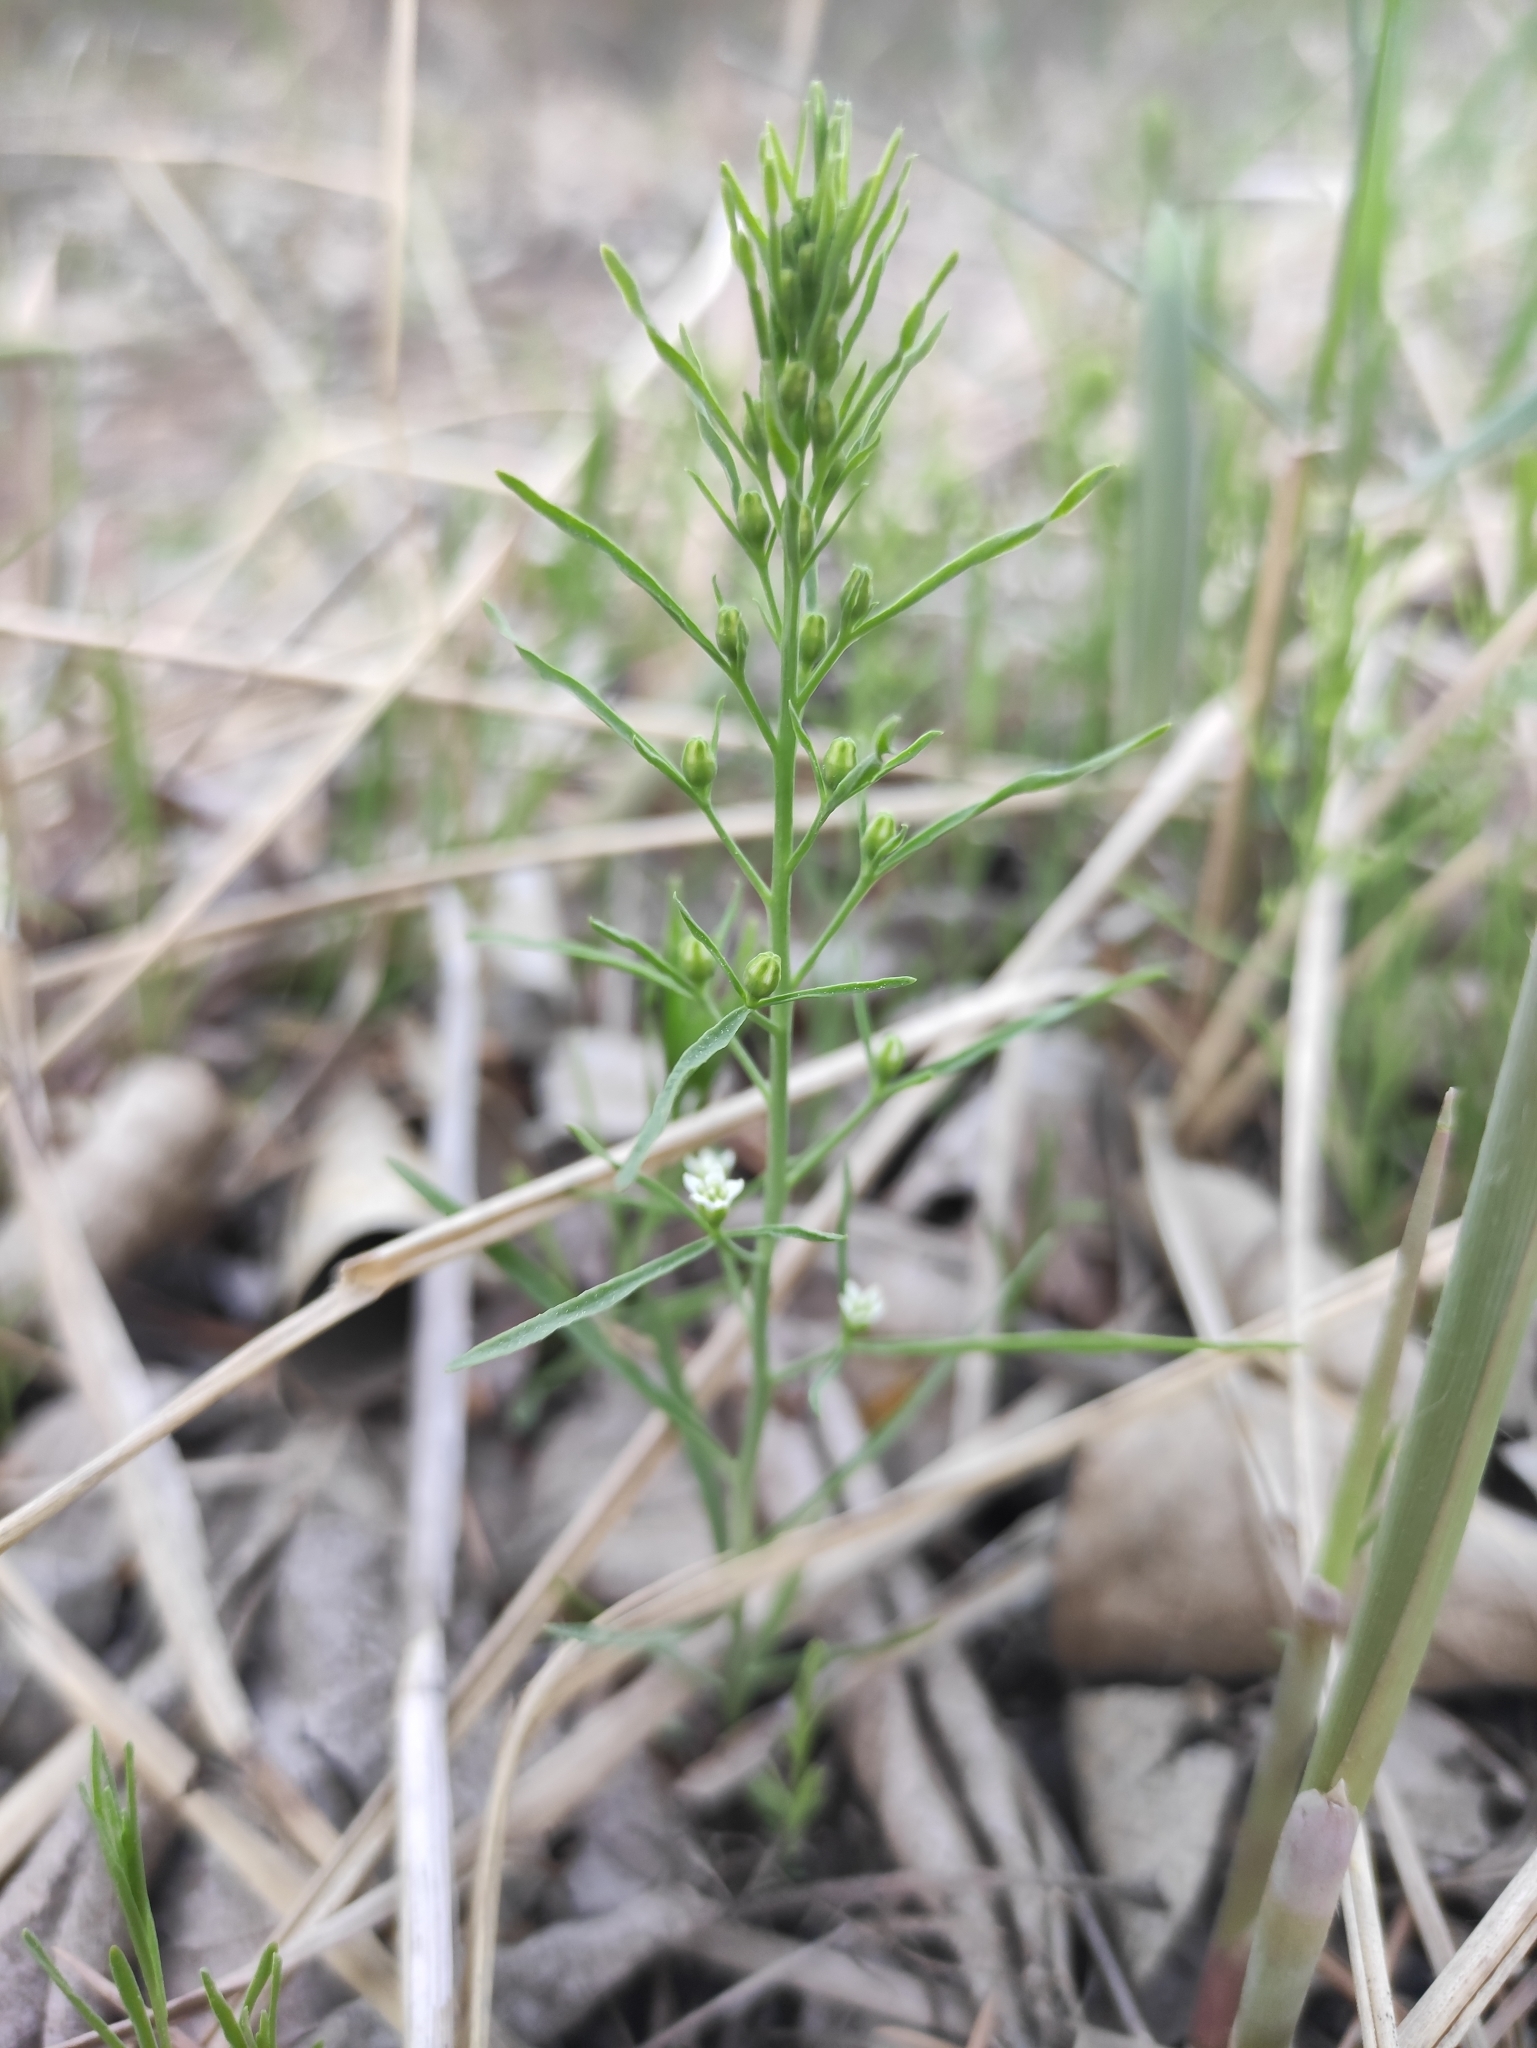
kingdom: Plantae
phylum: Tracheophyta
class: Magnoliopsida
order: Santalales
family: Thesiaceae
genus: Thesium
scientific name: Thesium repens
